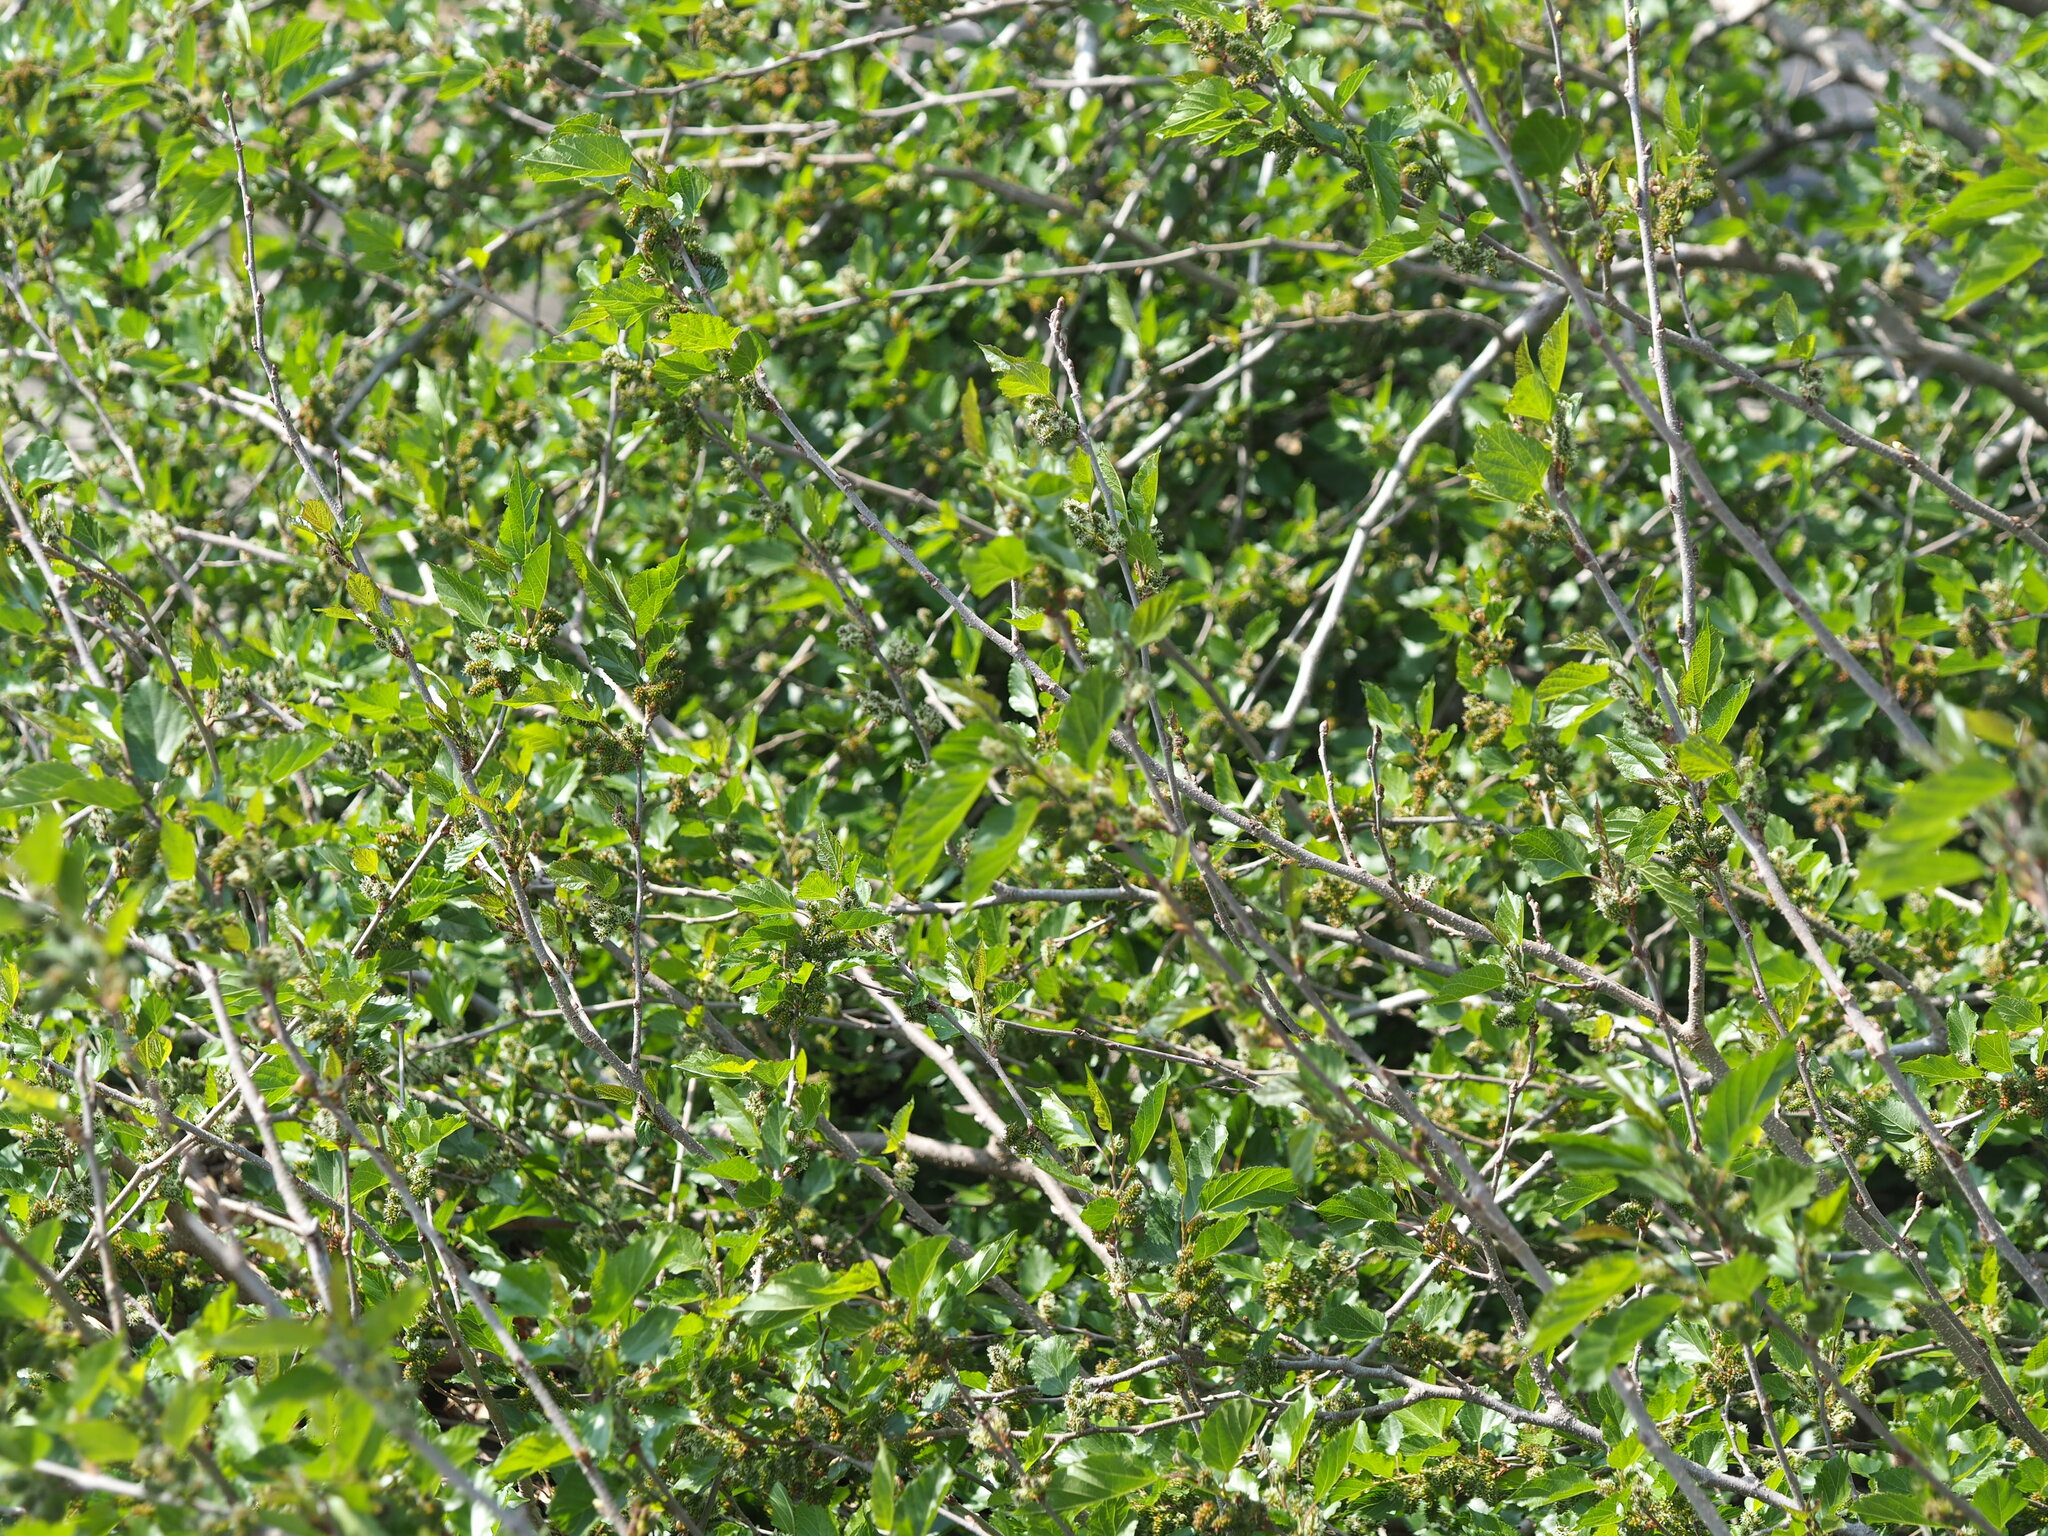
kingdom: Plantae
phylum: Tracheophyta
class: Magnoliopsida
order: Rosales
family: Moraceae
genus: Morus
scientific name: Morus indica
